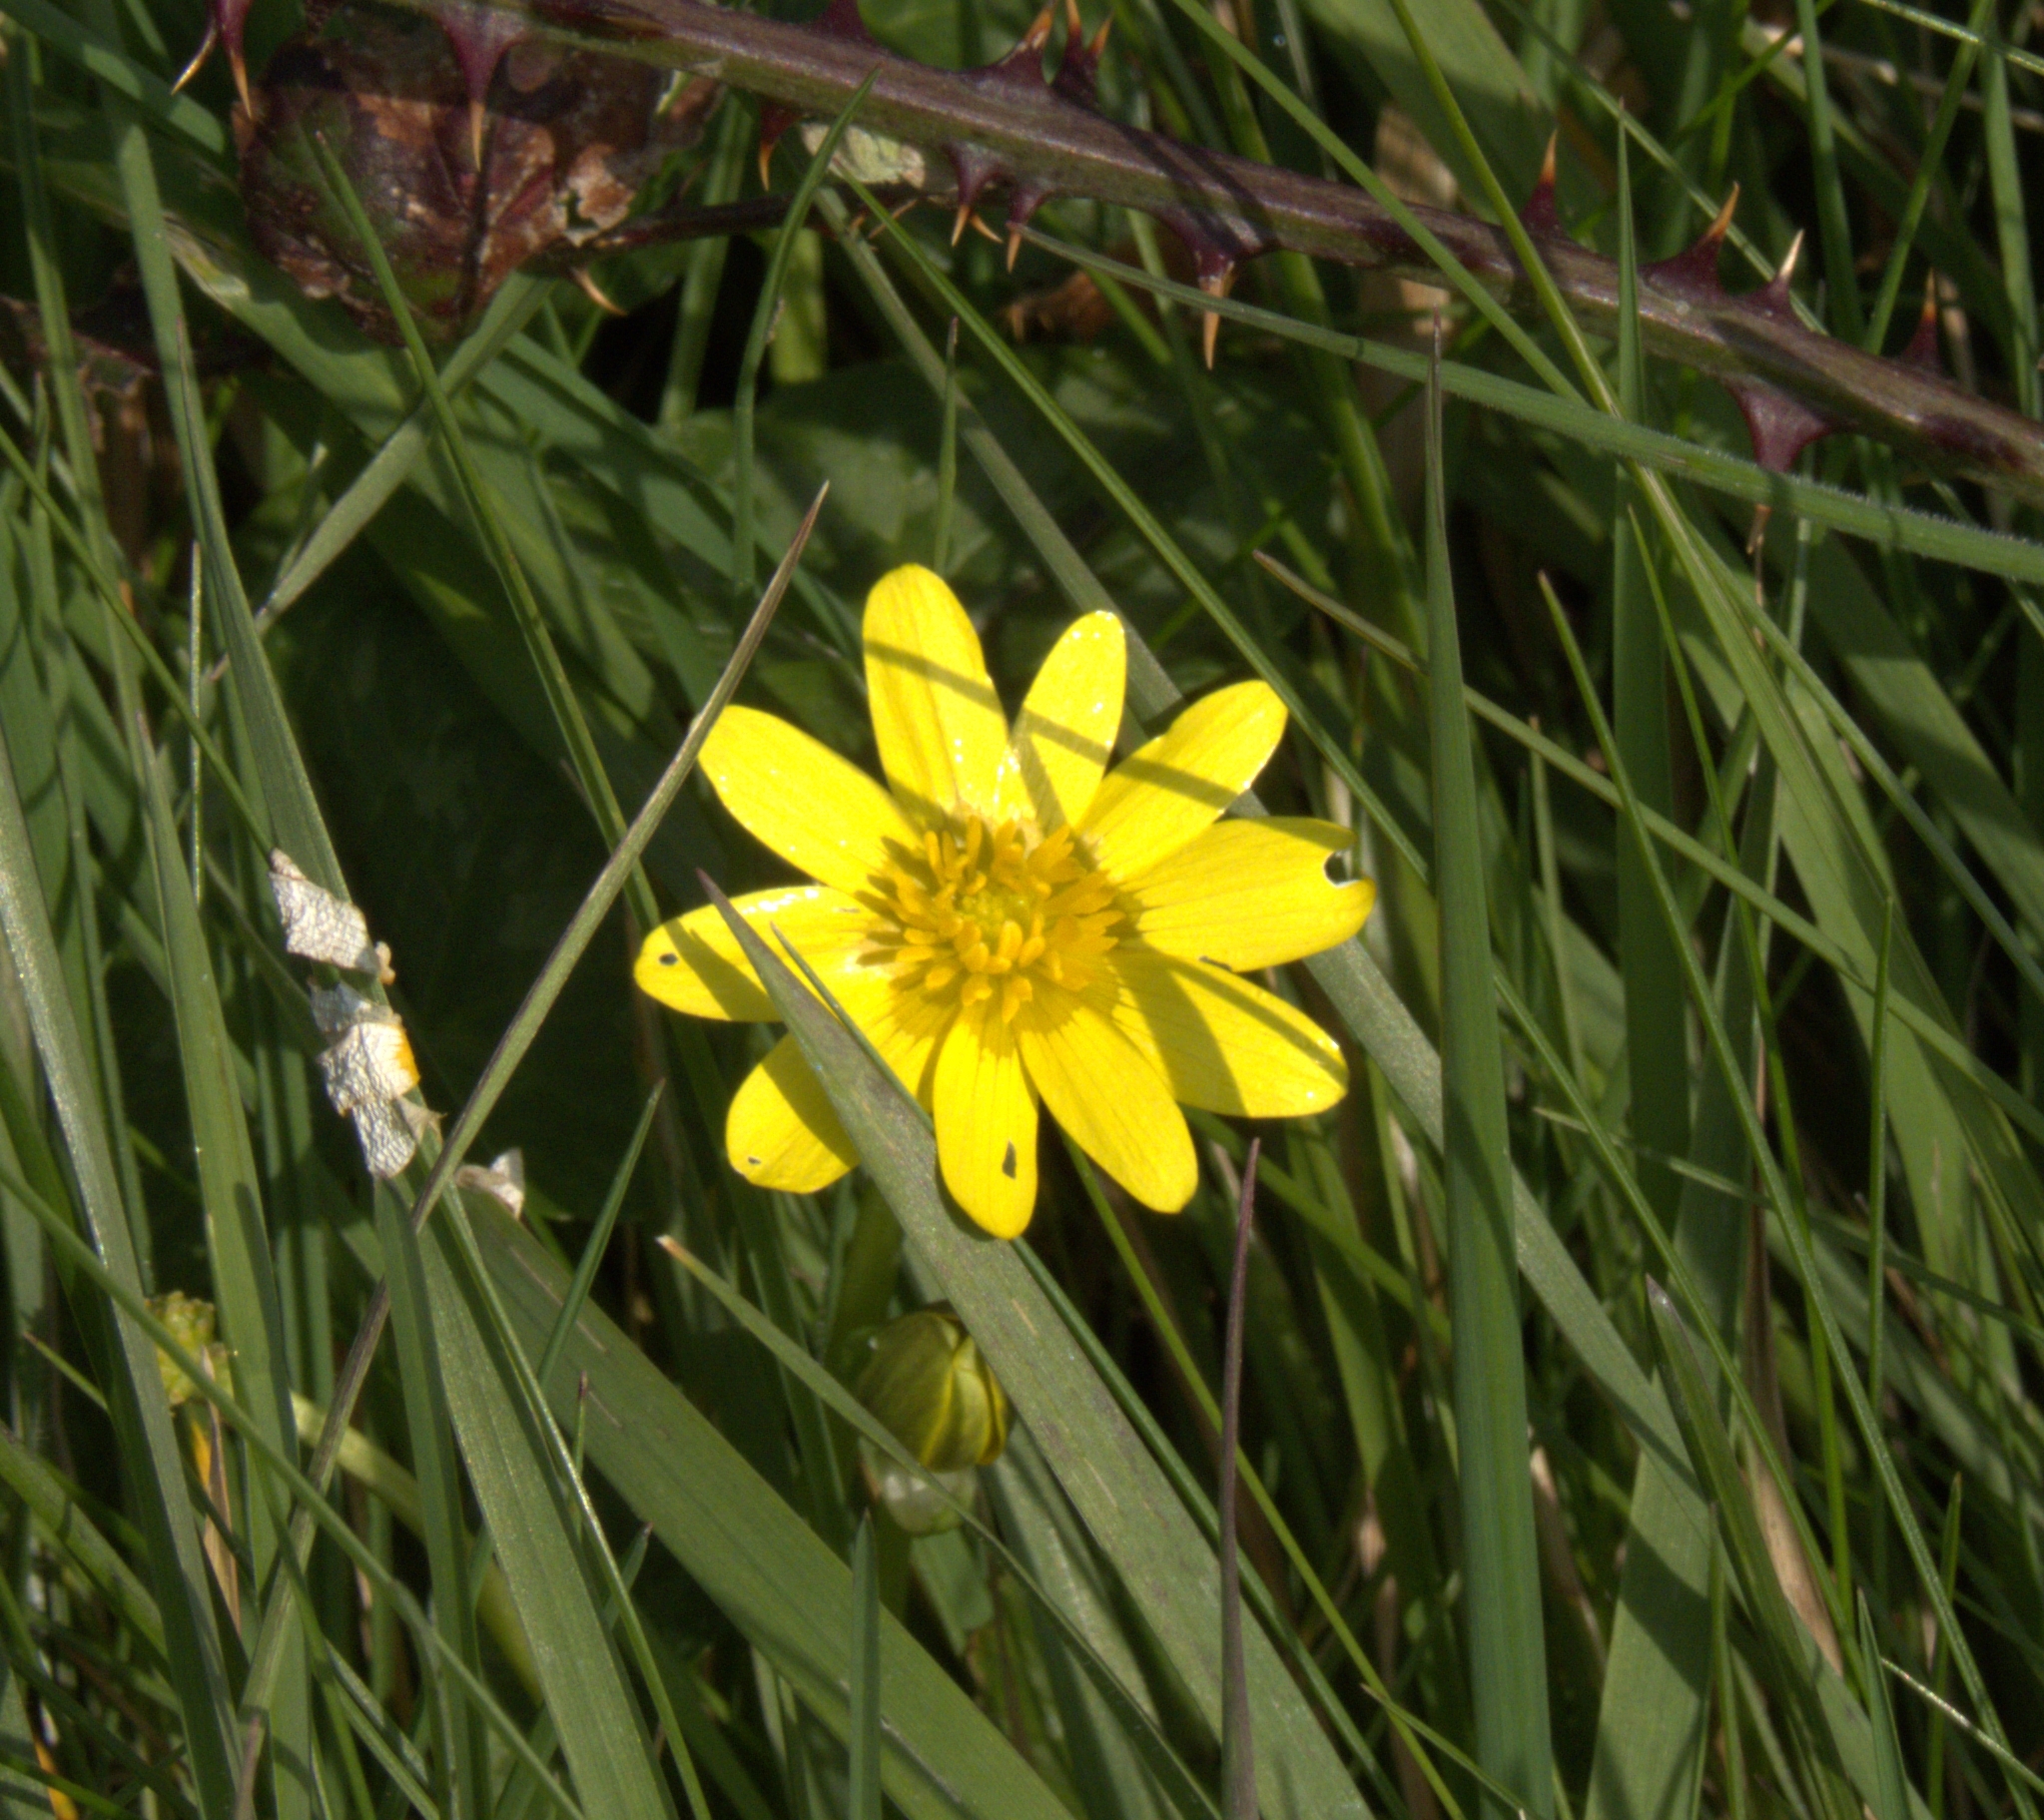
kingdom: Plantae
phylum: Tracheophyta
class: Magnoliopsida
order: Ranunculales
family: Ranunculaceae
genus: Ficaria
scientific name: Ficaria verna
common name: Lesser celandine
